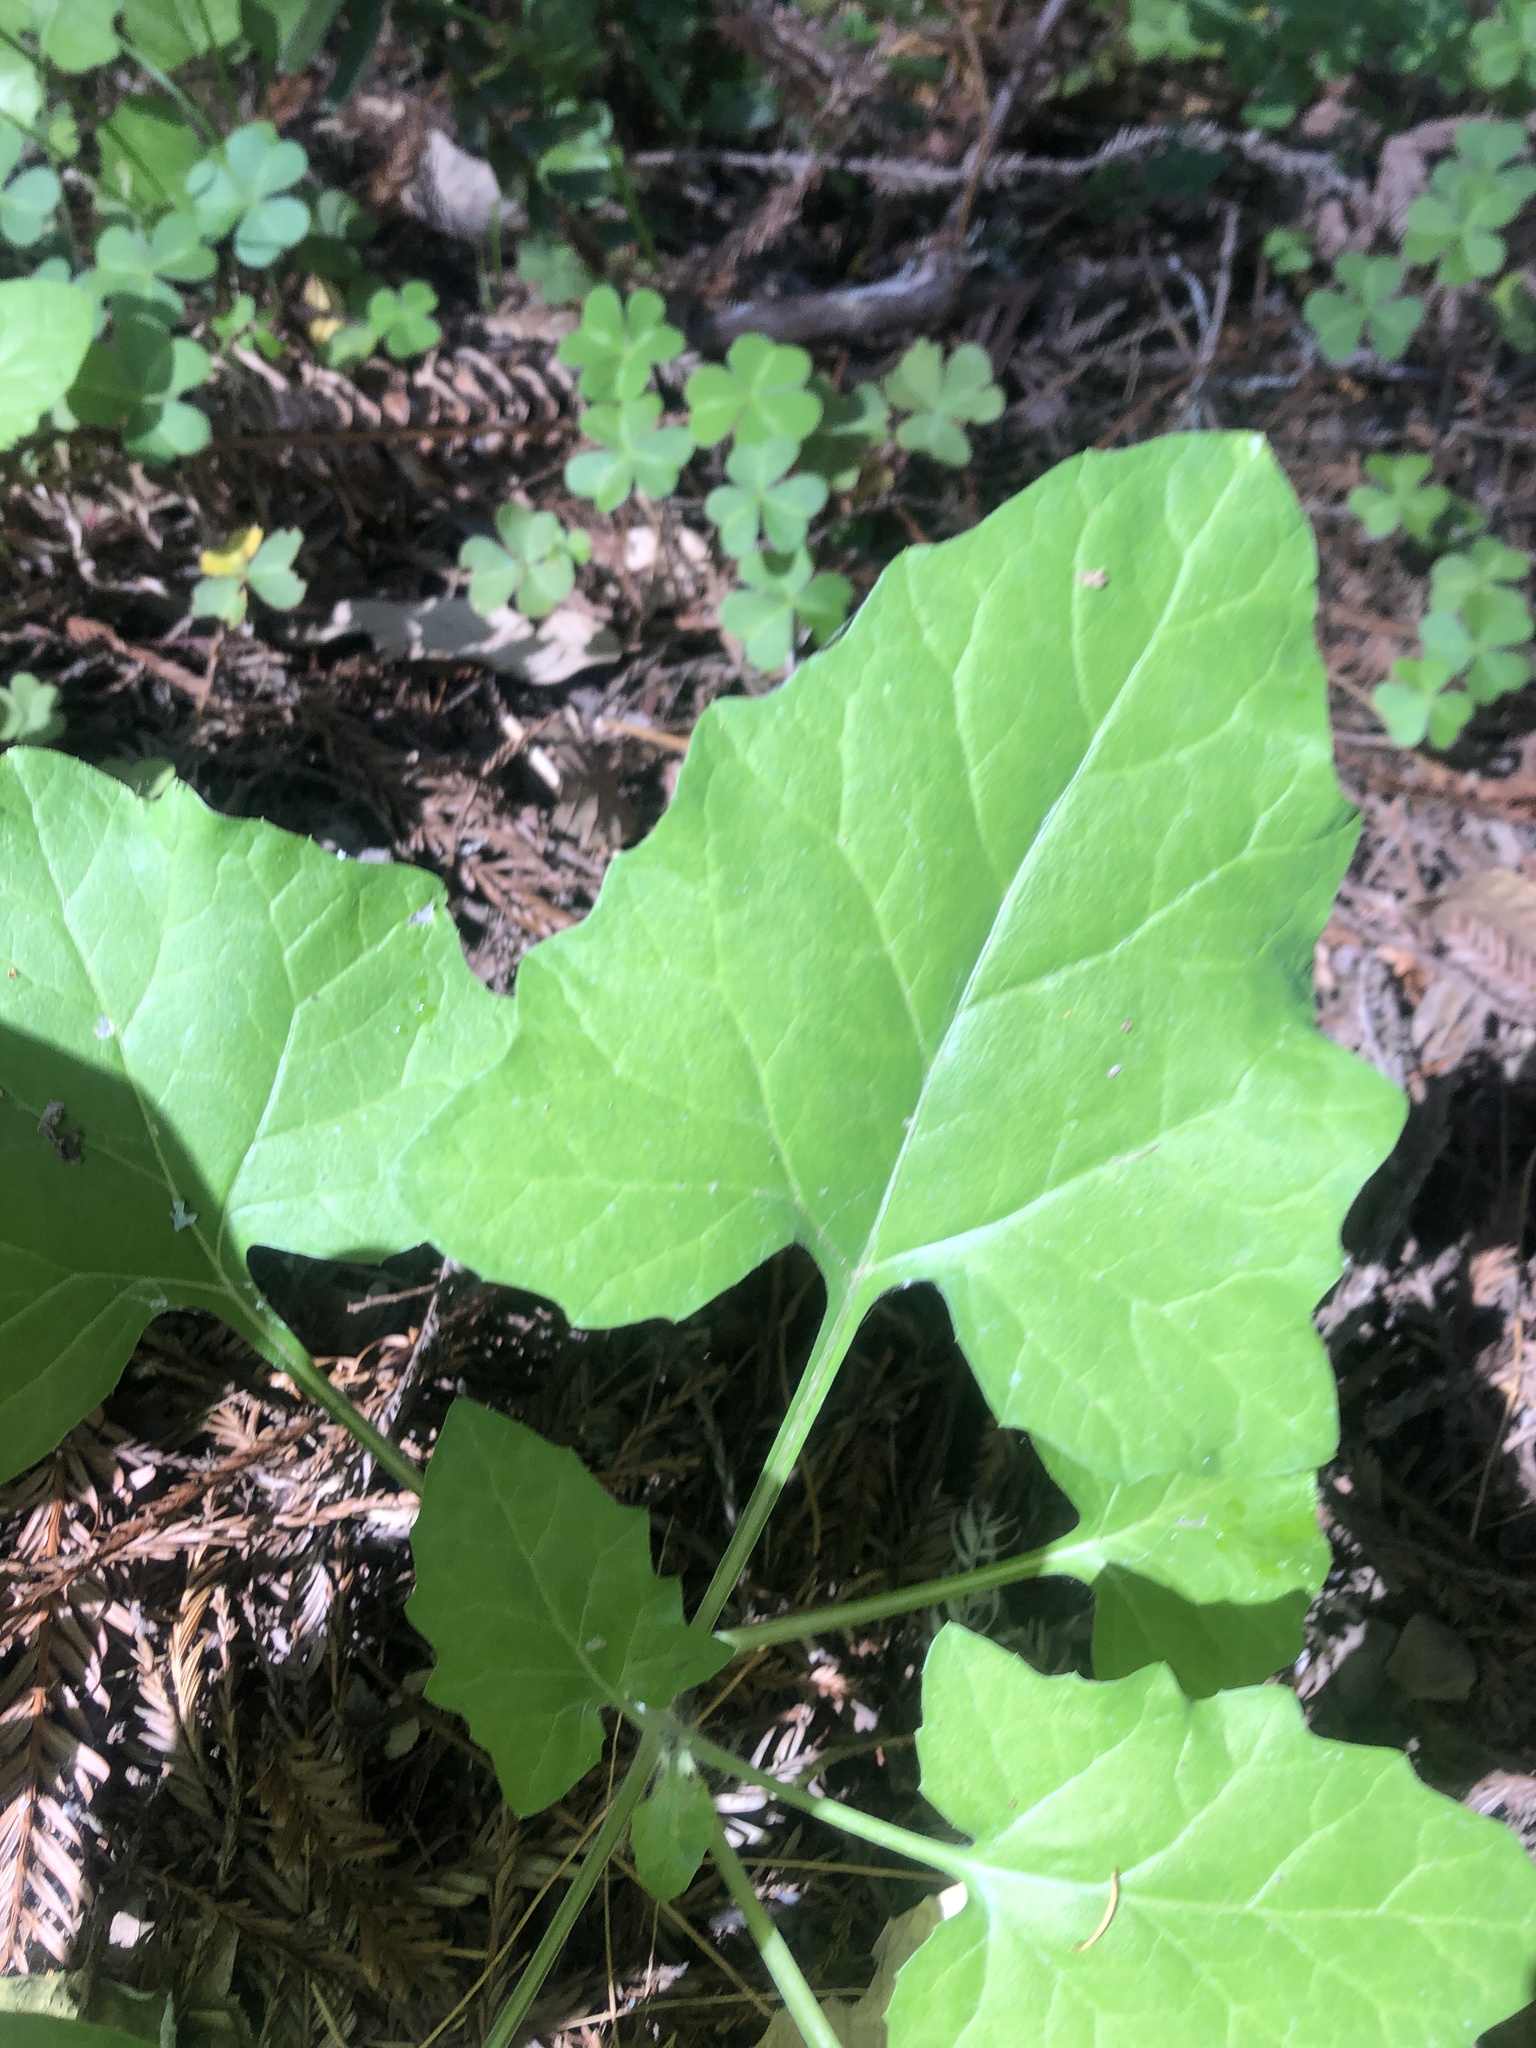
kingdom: Plantae
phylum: Tracheophyta
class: Magnoliopsida
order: Asterales
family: Asteraceae
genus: Adenocaulon
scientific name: Adenocaulon bicolor
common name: Trailplant
